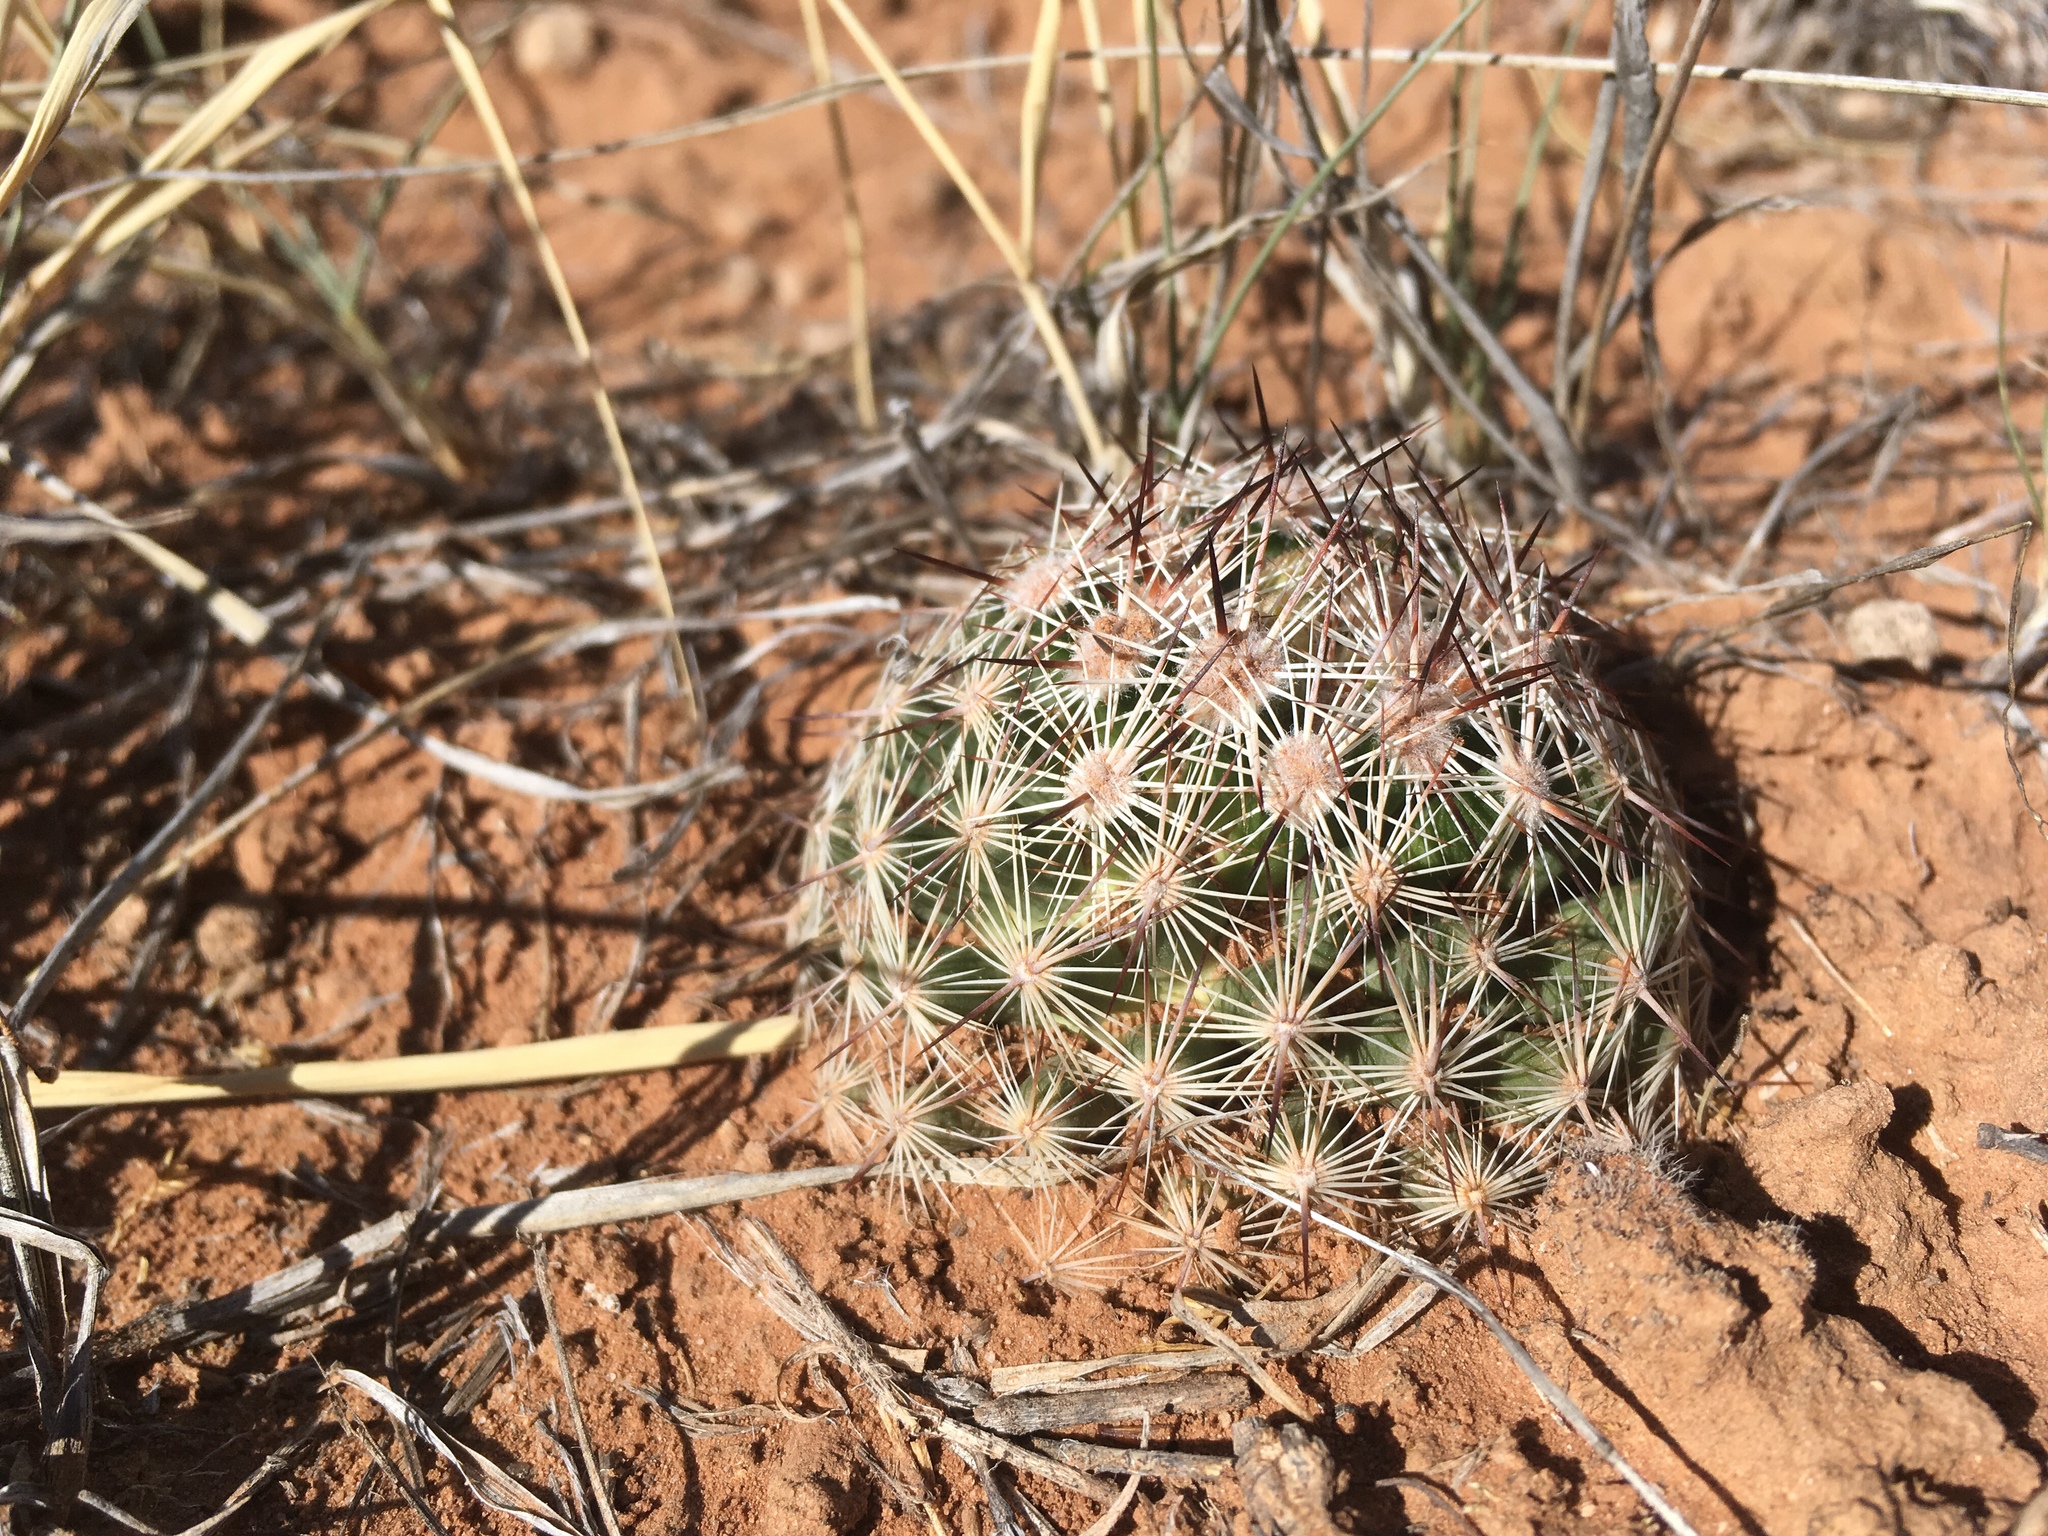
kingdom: Plantae
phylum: Tracheophyta
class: Magnoliopsida
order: Caryophyllales
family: Cactaceae
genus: Pelecyphora
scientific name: Pelecyphora vivipara
